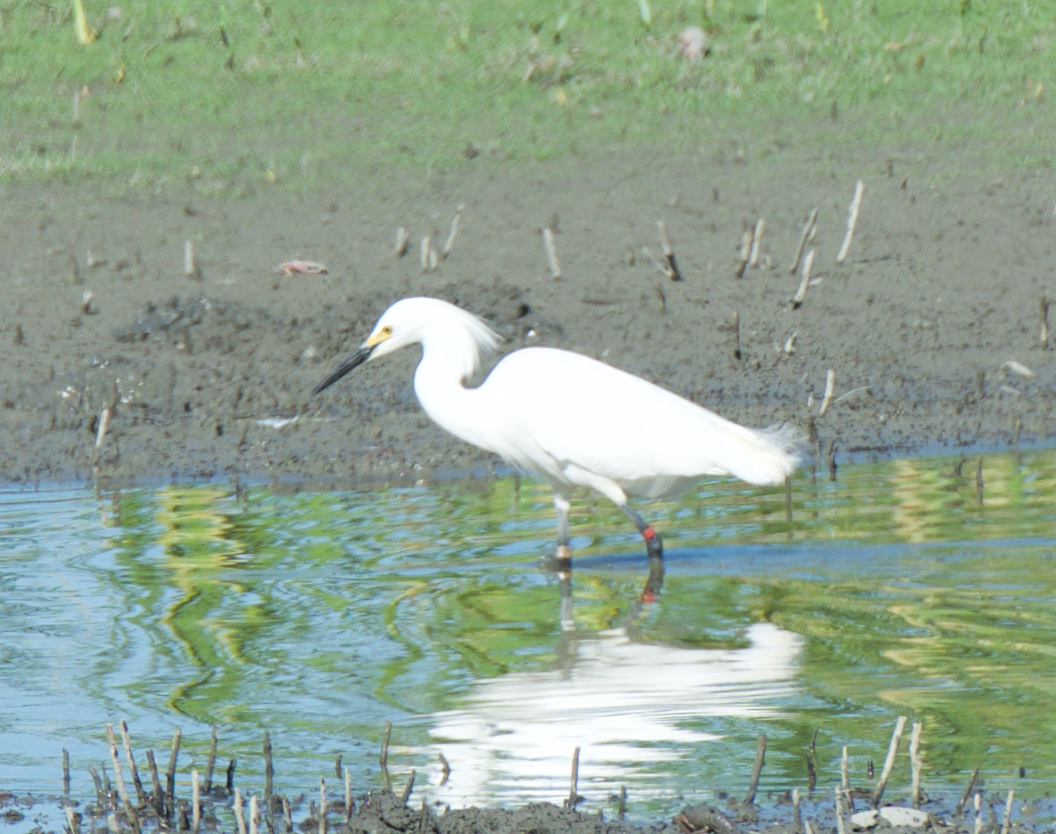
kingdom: Animalia
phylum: Chordata
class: Aves
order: Pelecaniformes
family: Ardeidae
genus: Egretta
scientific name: Egretta thula
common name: Snowy egret
